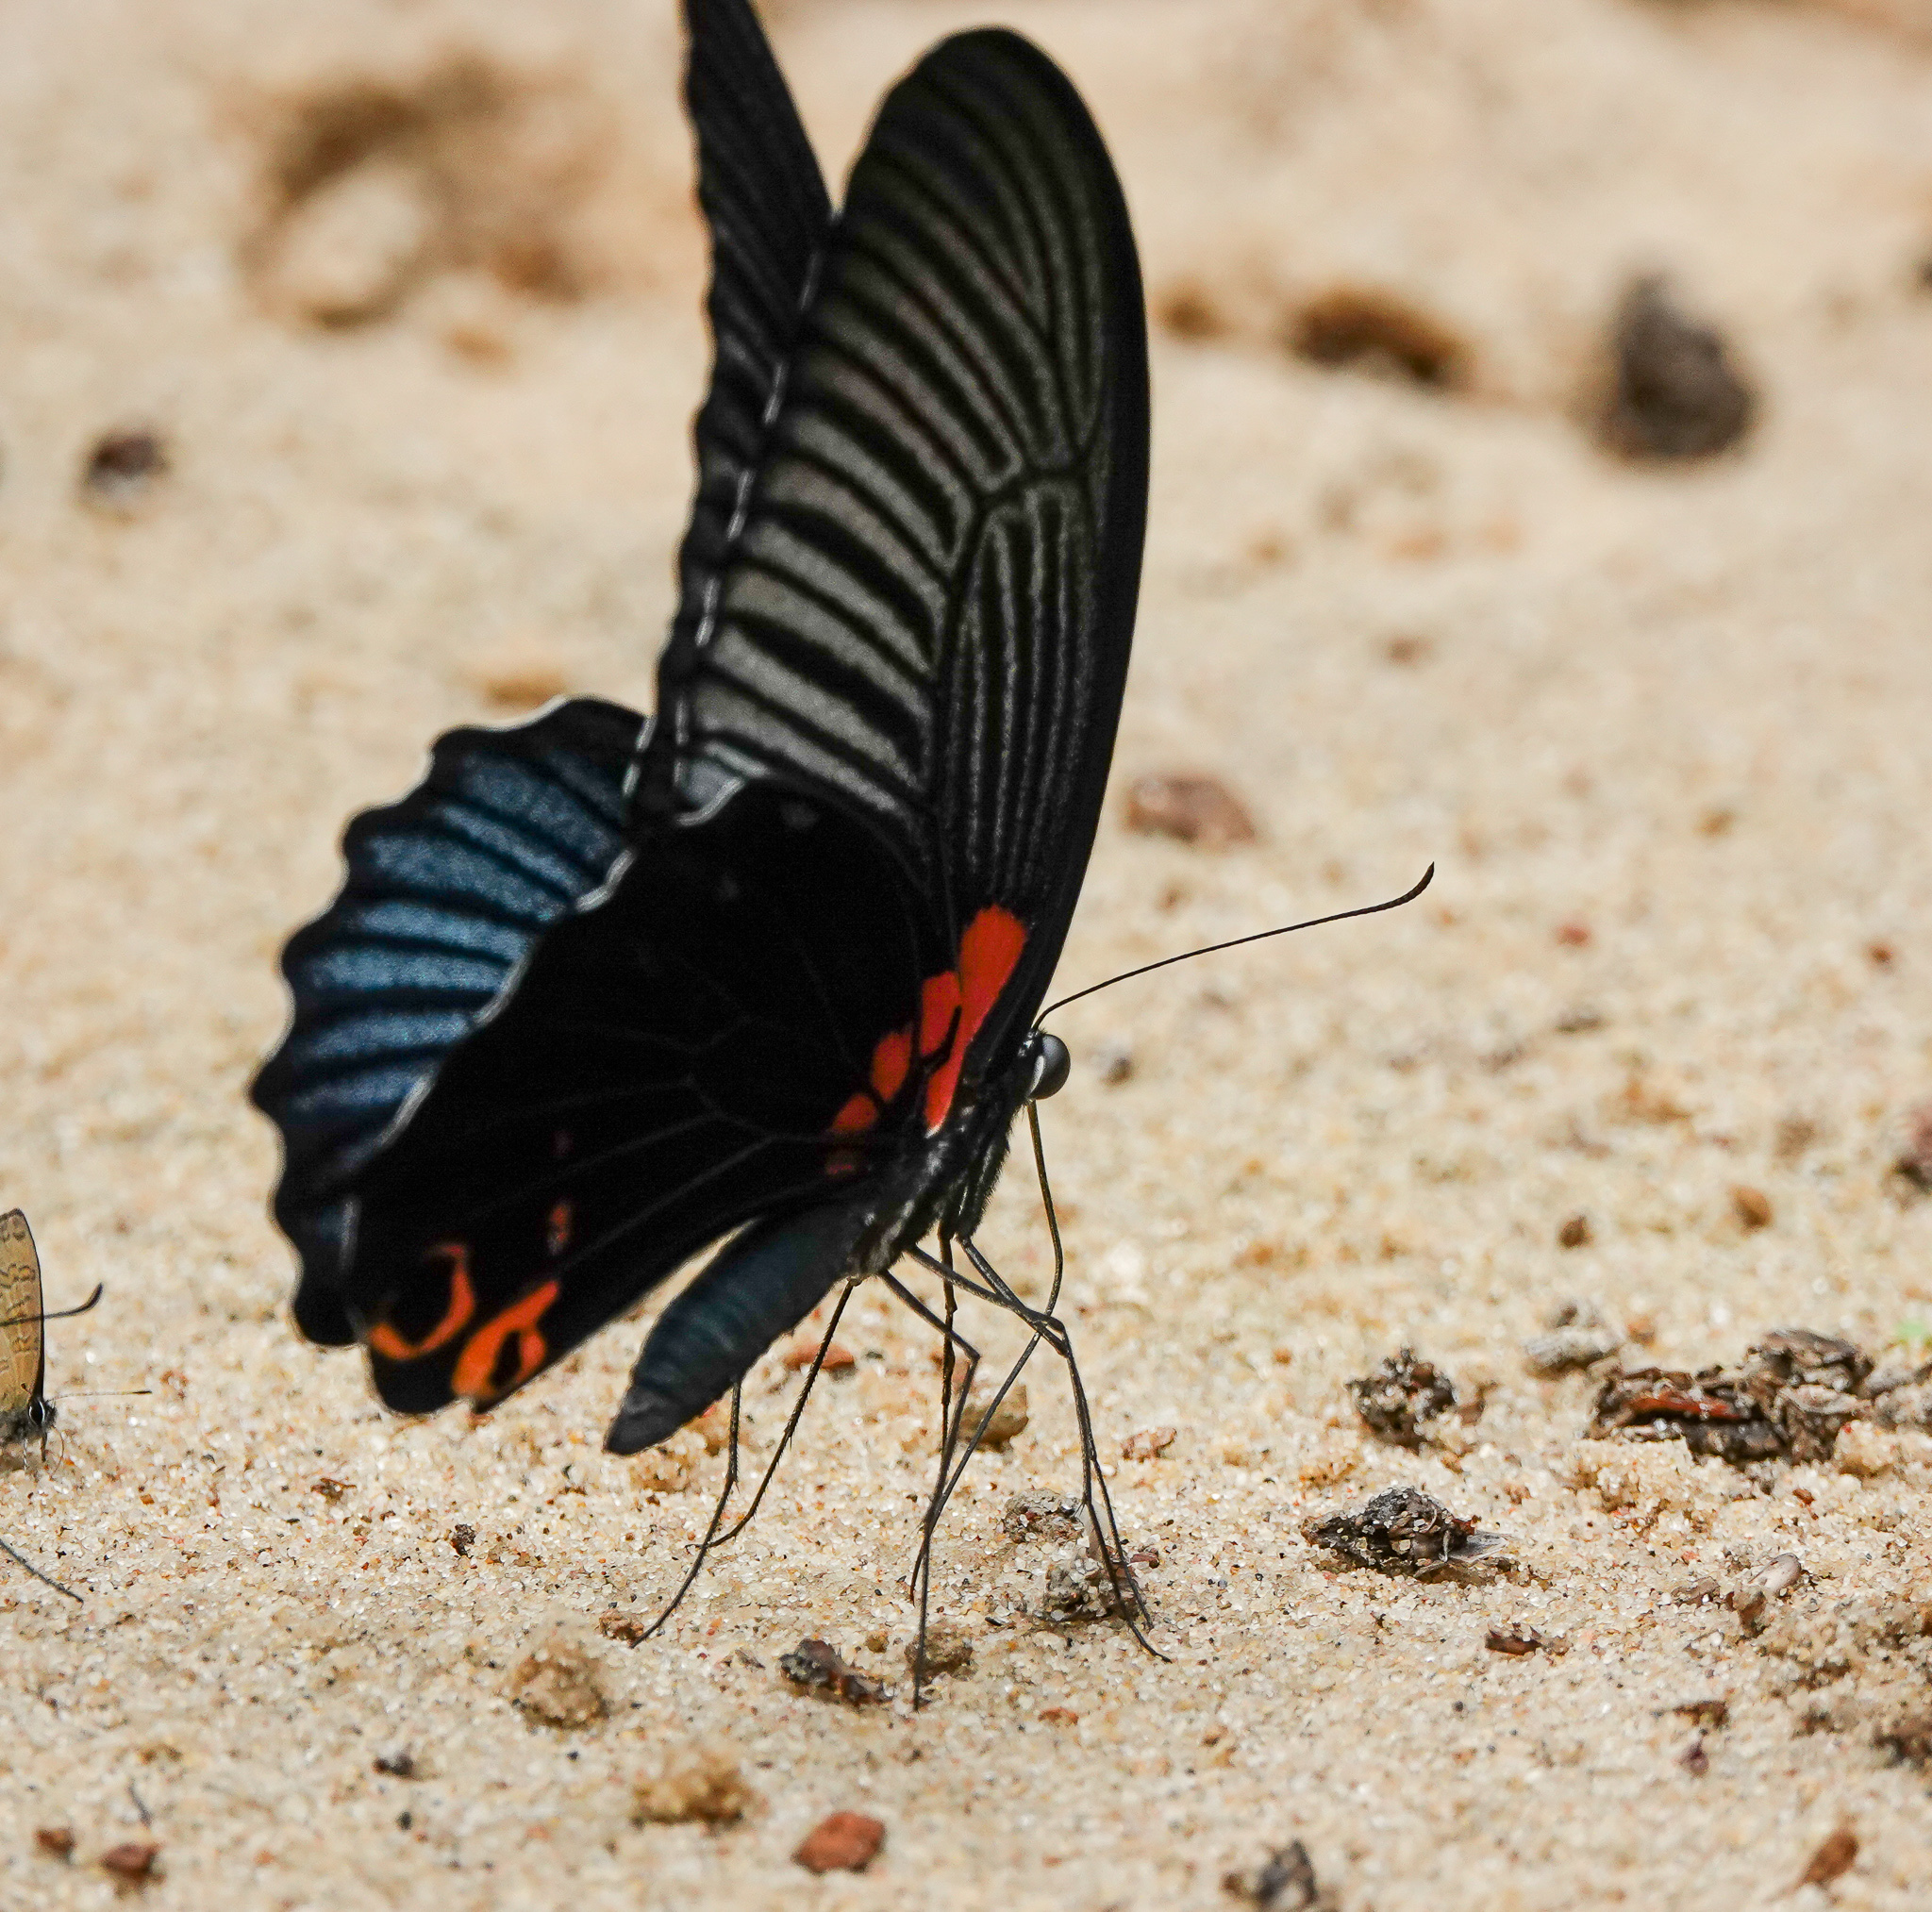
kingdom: Animalia
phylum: Arthropoda
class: Insecta
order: Lepidoptera
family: Papilionidae
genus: Papilio
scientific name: Papilio memnon
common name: Great mormon
